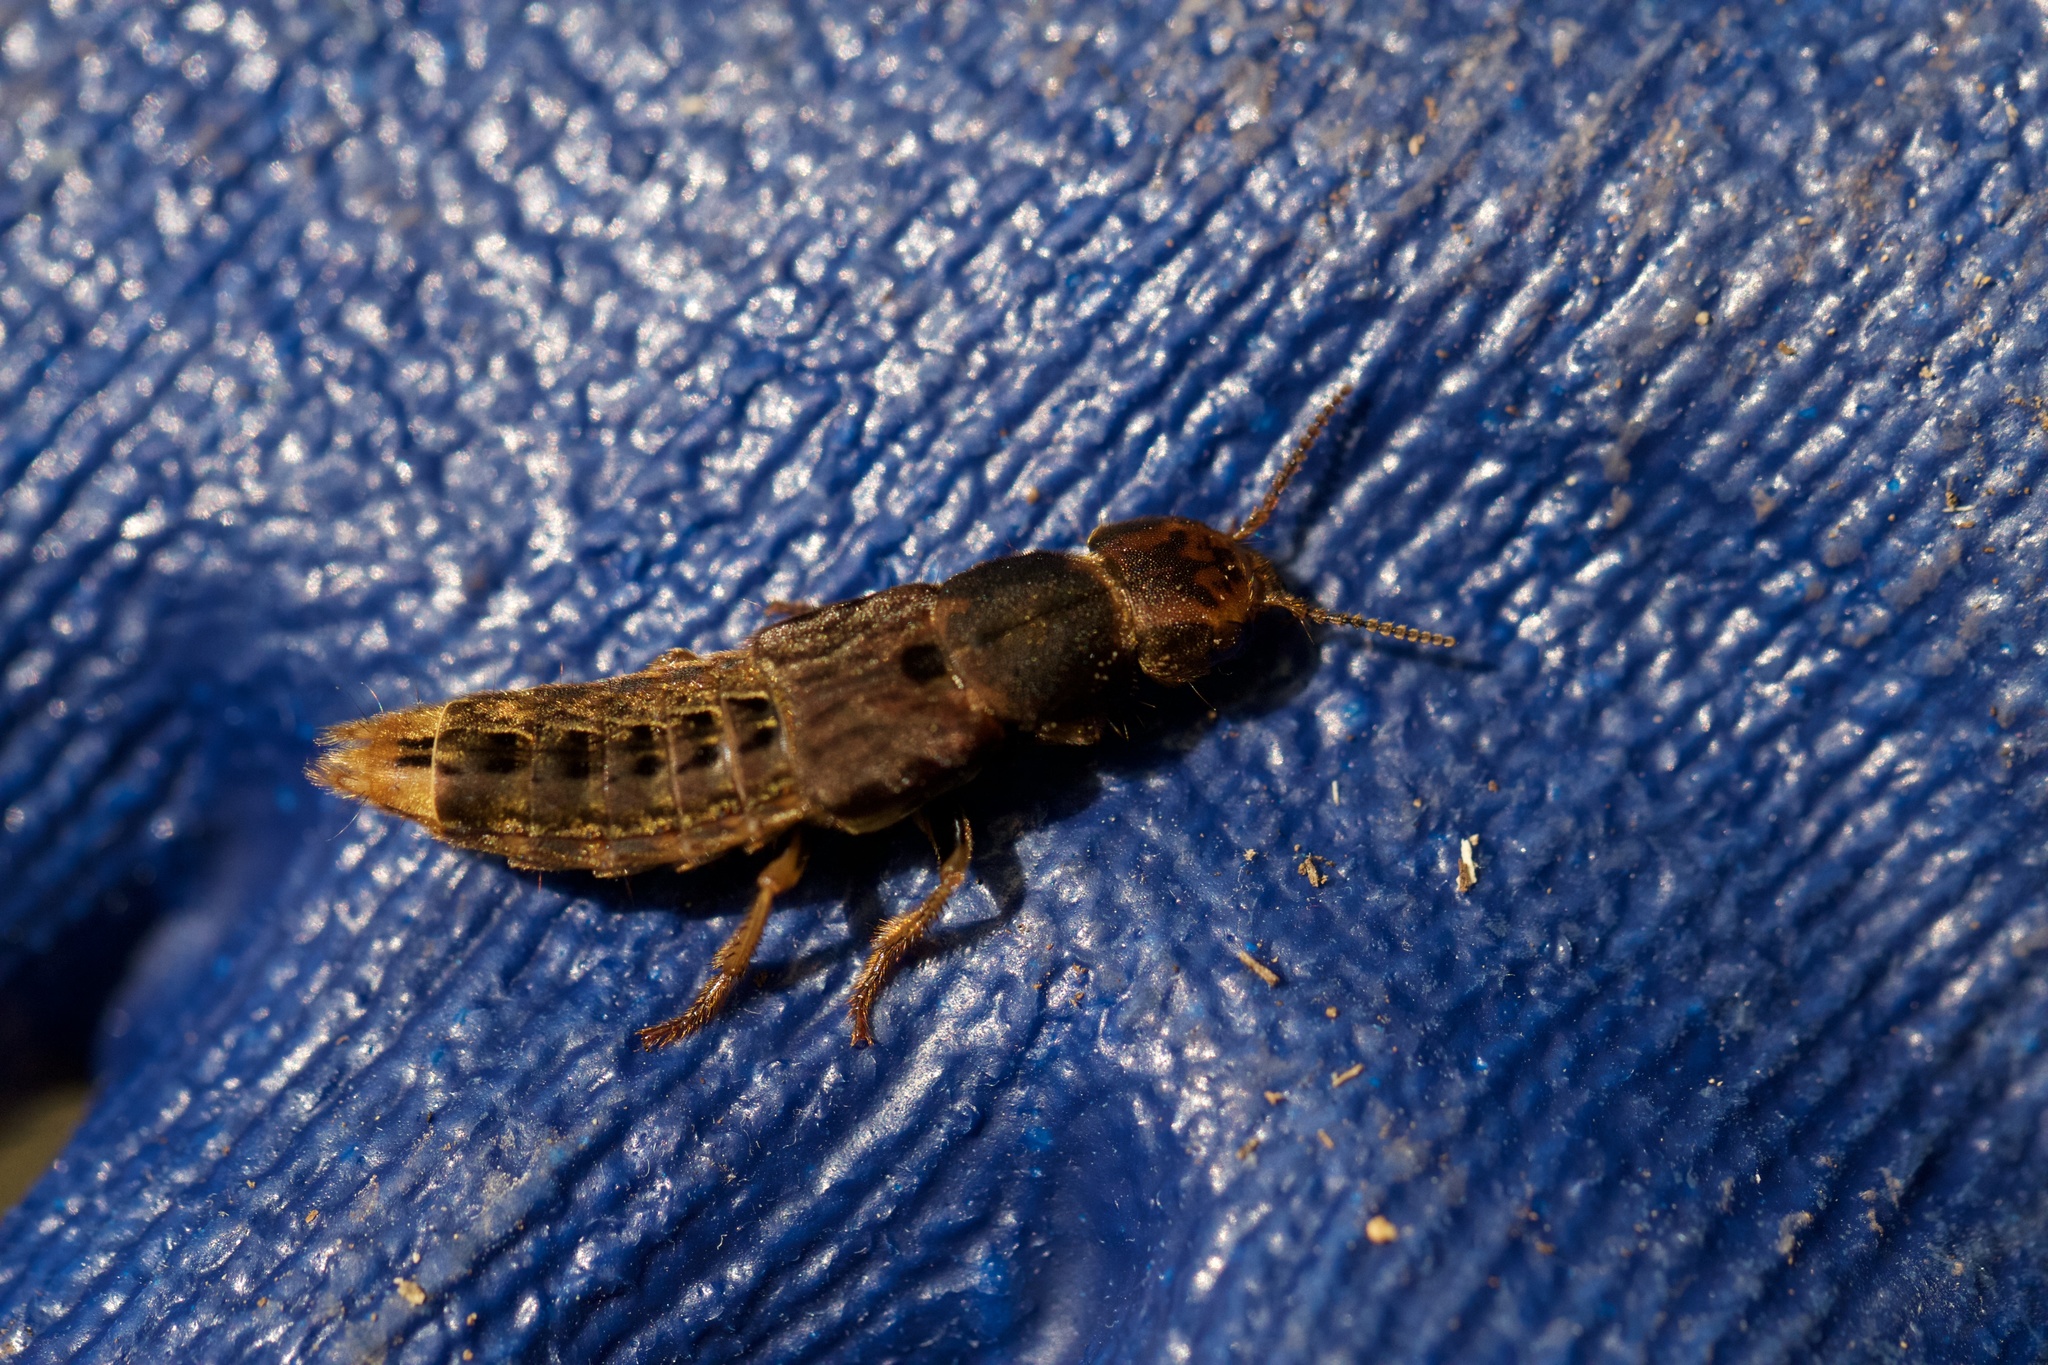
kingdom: Animalia
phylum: Arthropoda
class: Insecta
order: Coleoptera
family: Staphylinidae
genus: Platydracus
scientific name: Platydracus maculosus
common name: Brown rove beetle
